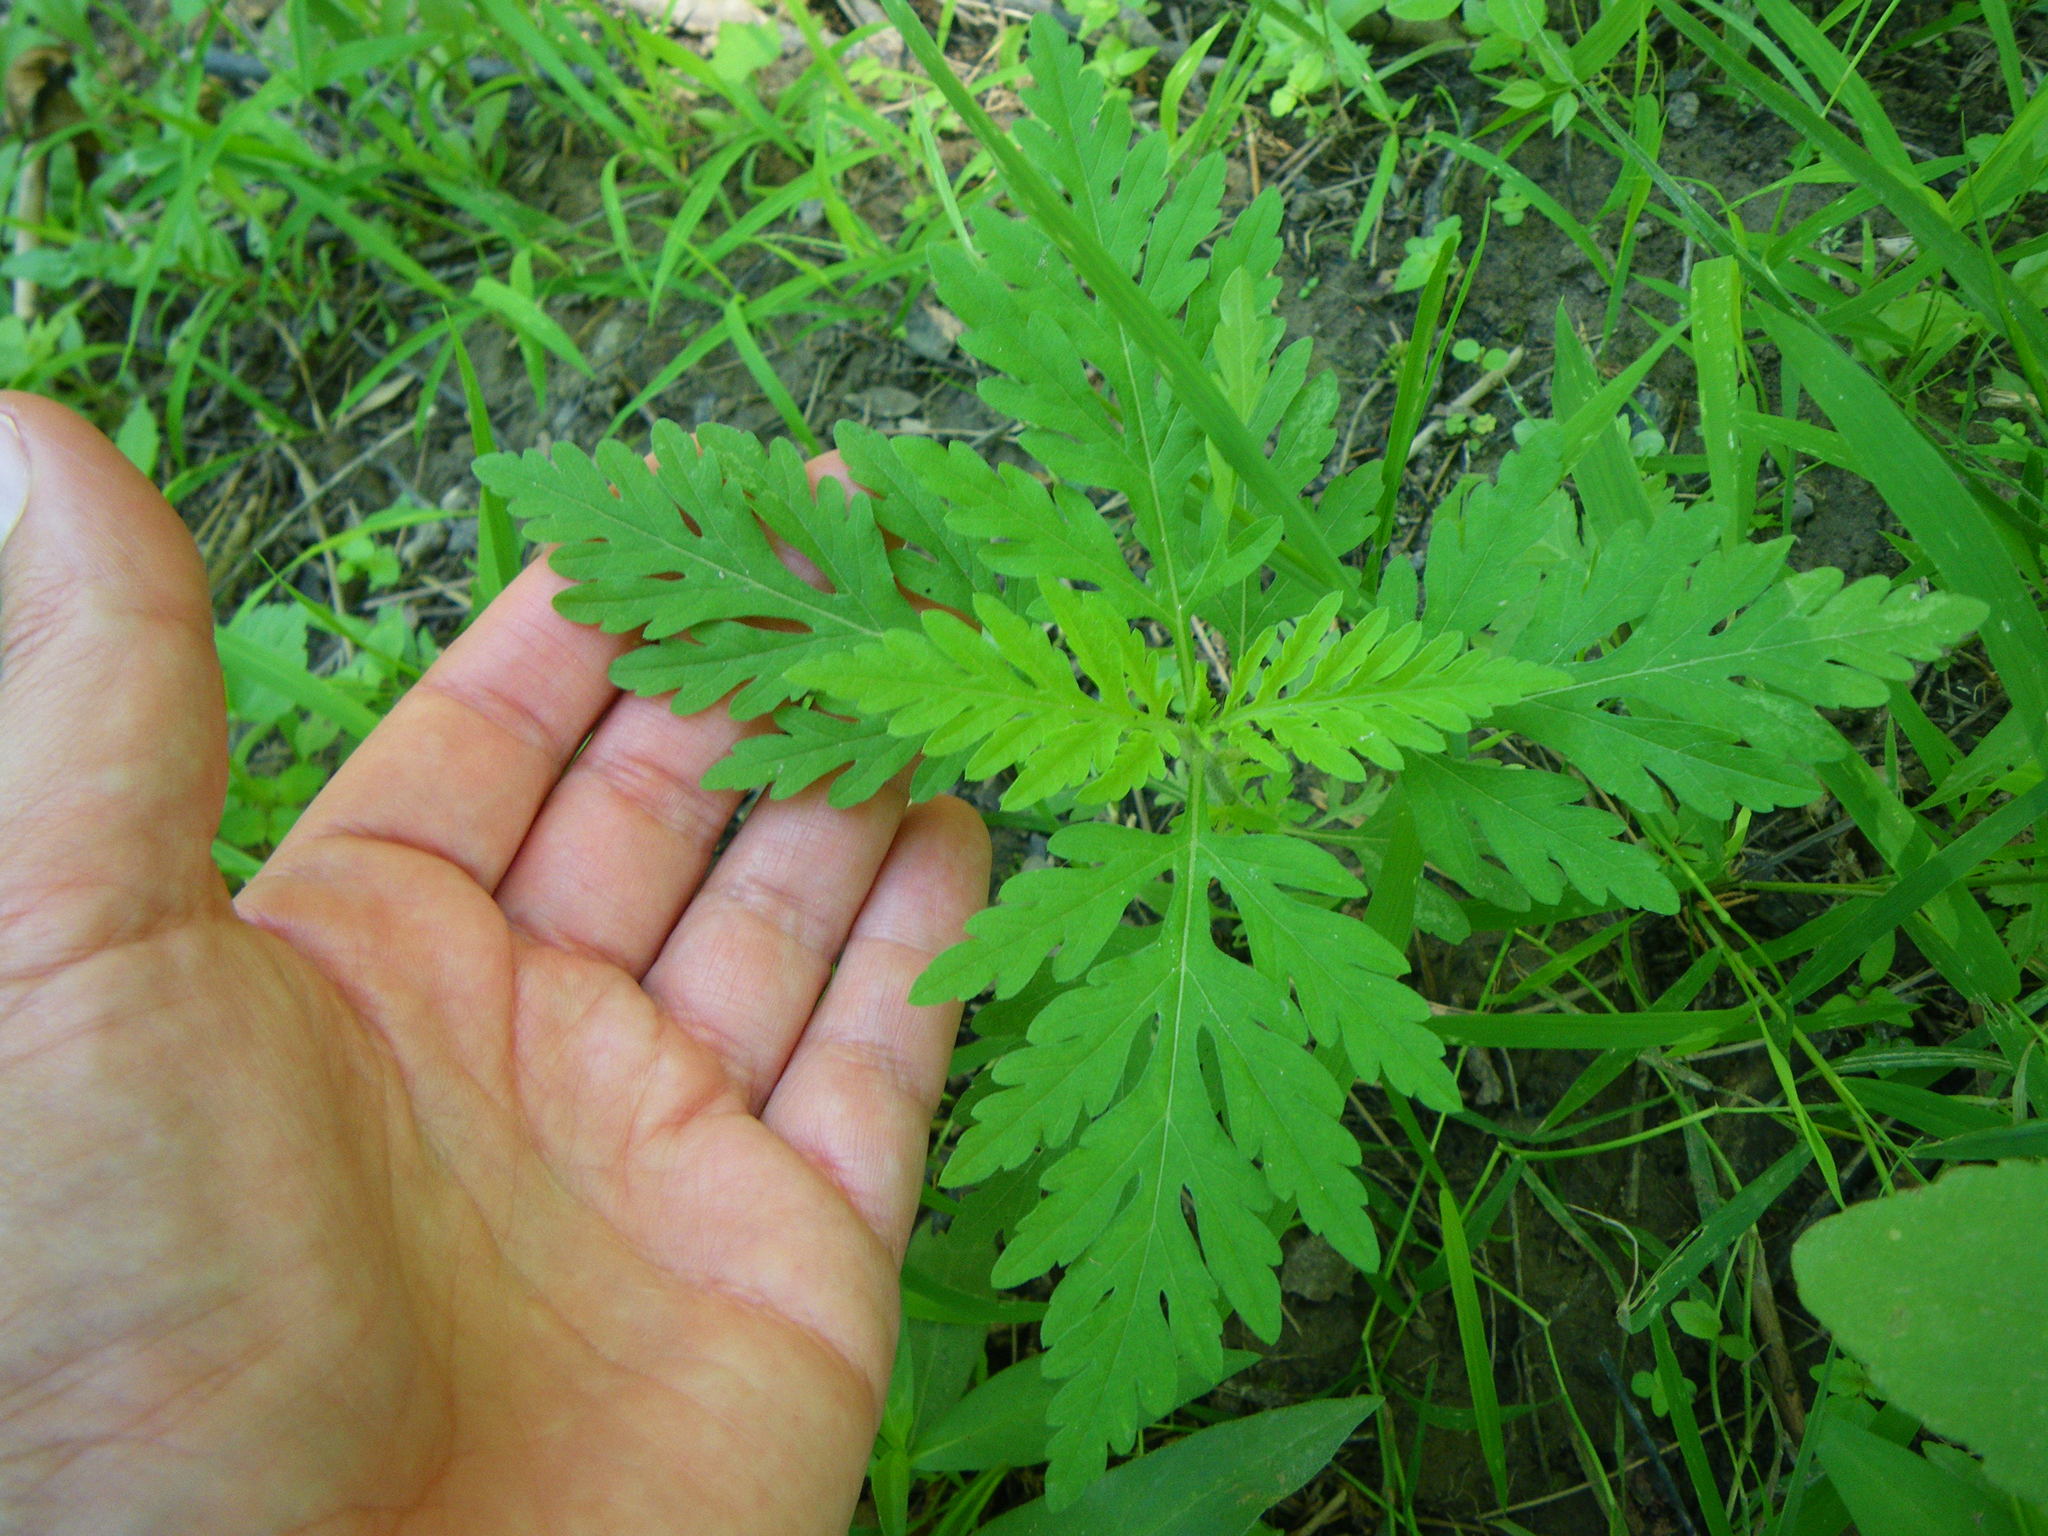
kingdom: Plantae
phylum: Tracheophyta
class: Magnoliopsida
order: Asterales
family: Asteraceae
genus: Ambrosia
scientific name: Ambrosia artemisiifolia
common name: Annual ragweed
